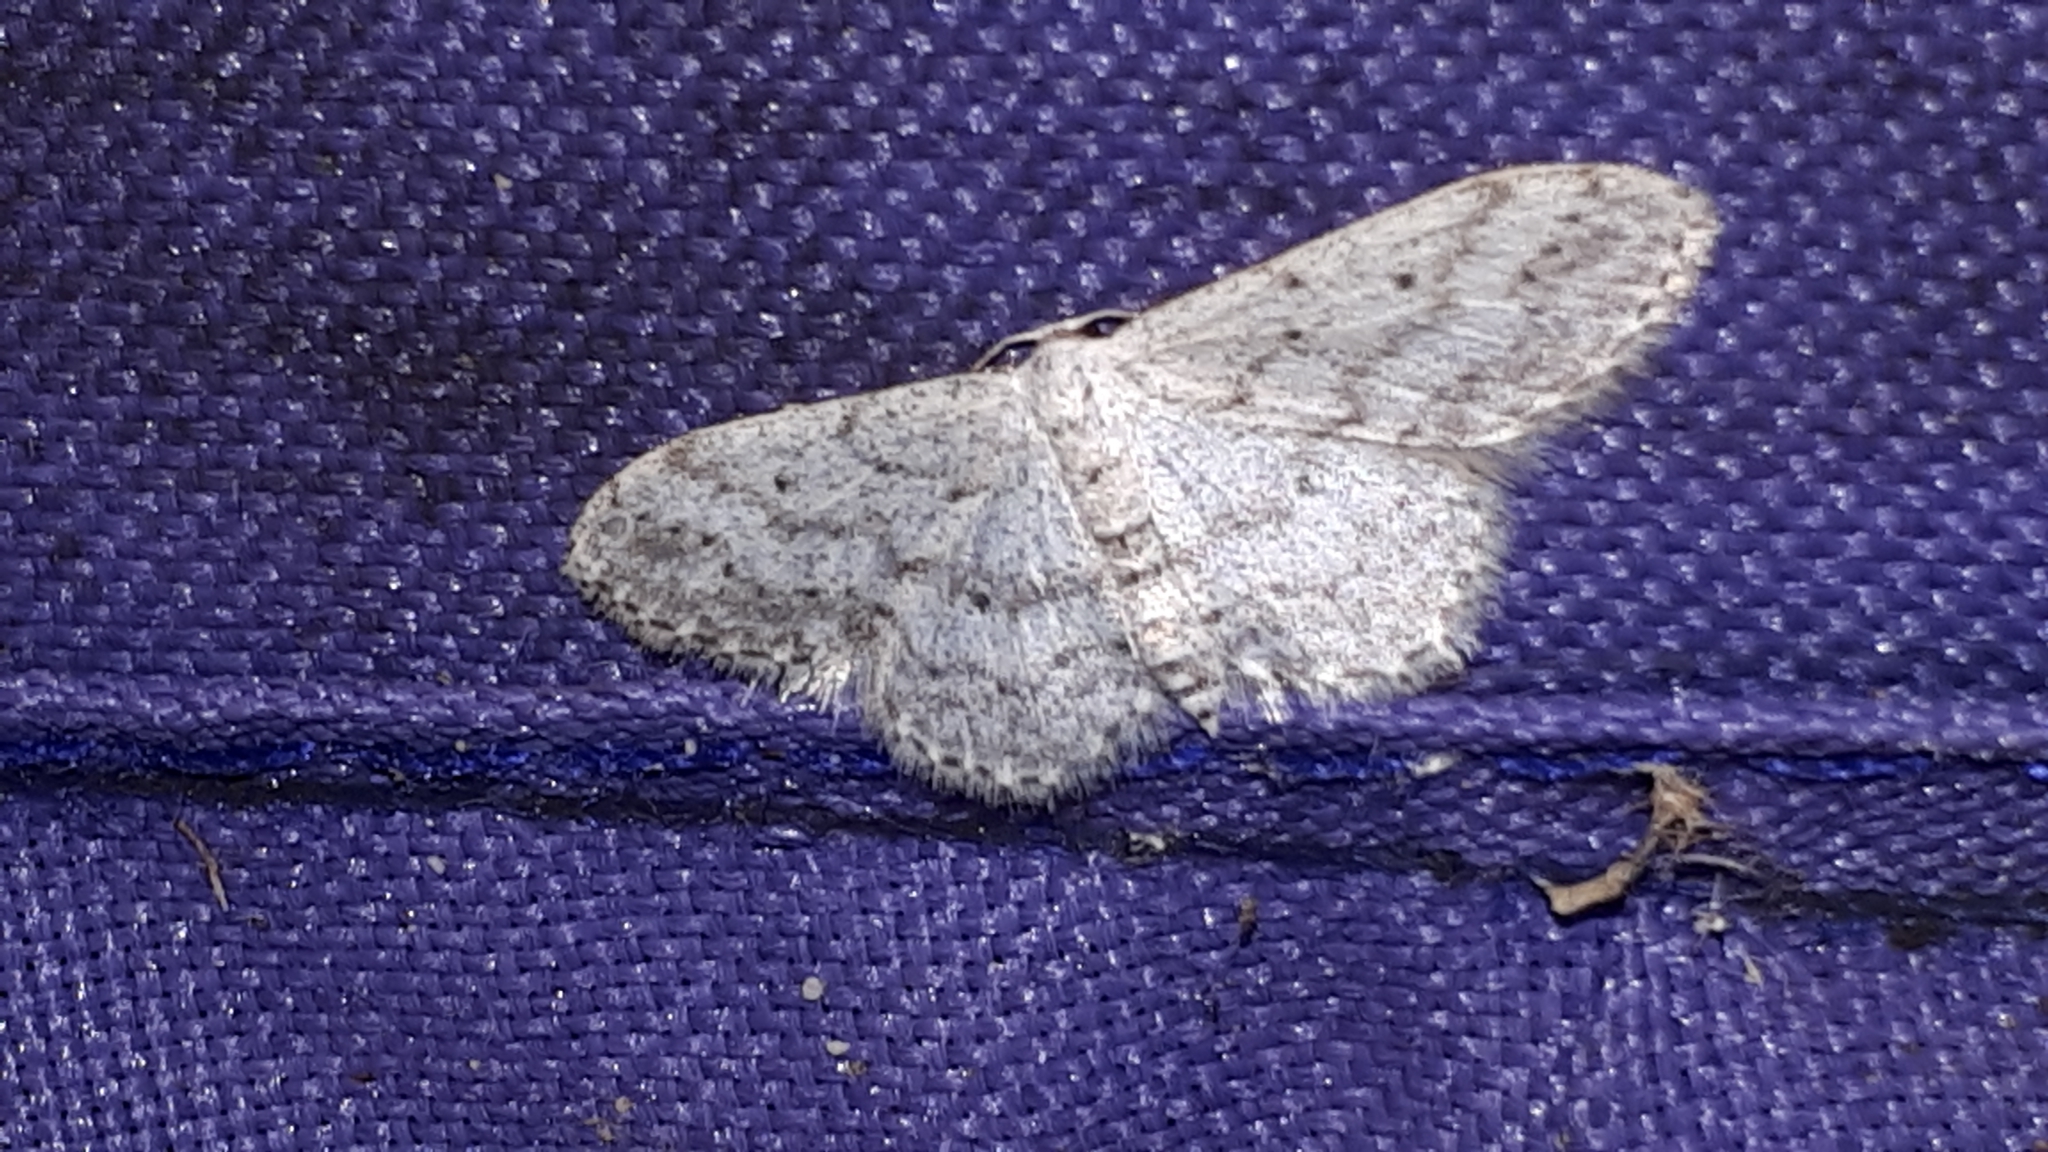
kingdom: Animalia
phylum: Arthropoda
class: Insecta
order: Lepidoptera
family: Geometridae
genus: Idaea
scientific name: Idaea seriata
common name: Small dusty wave
